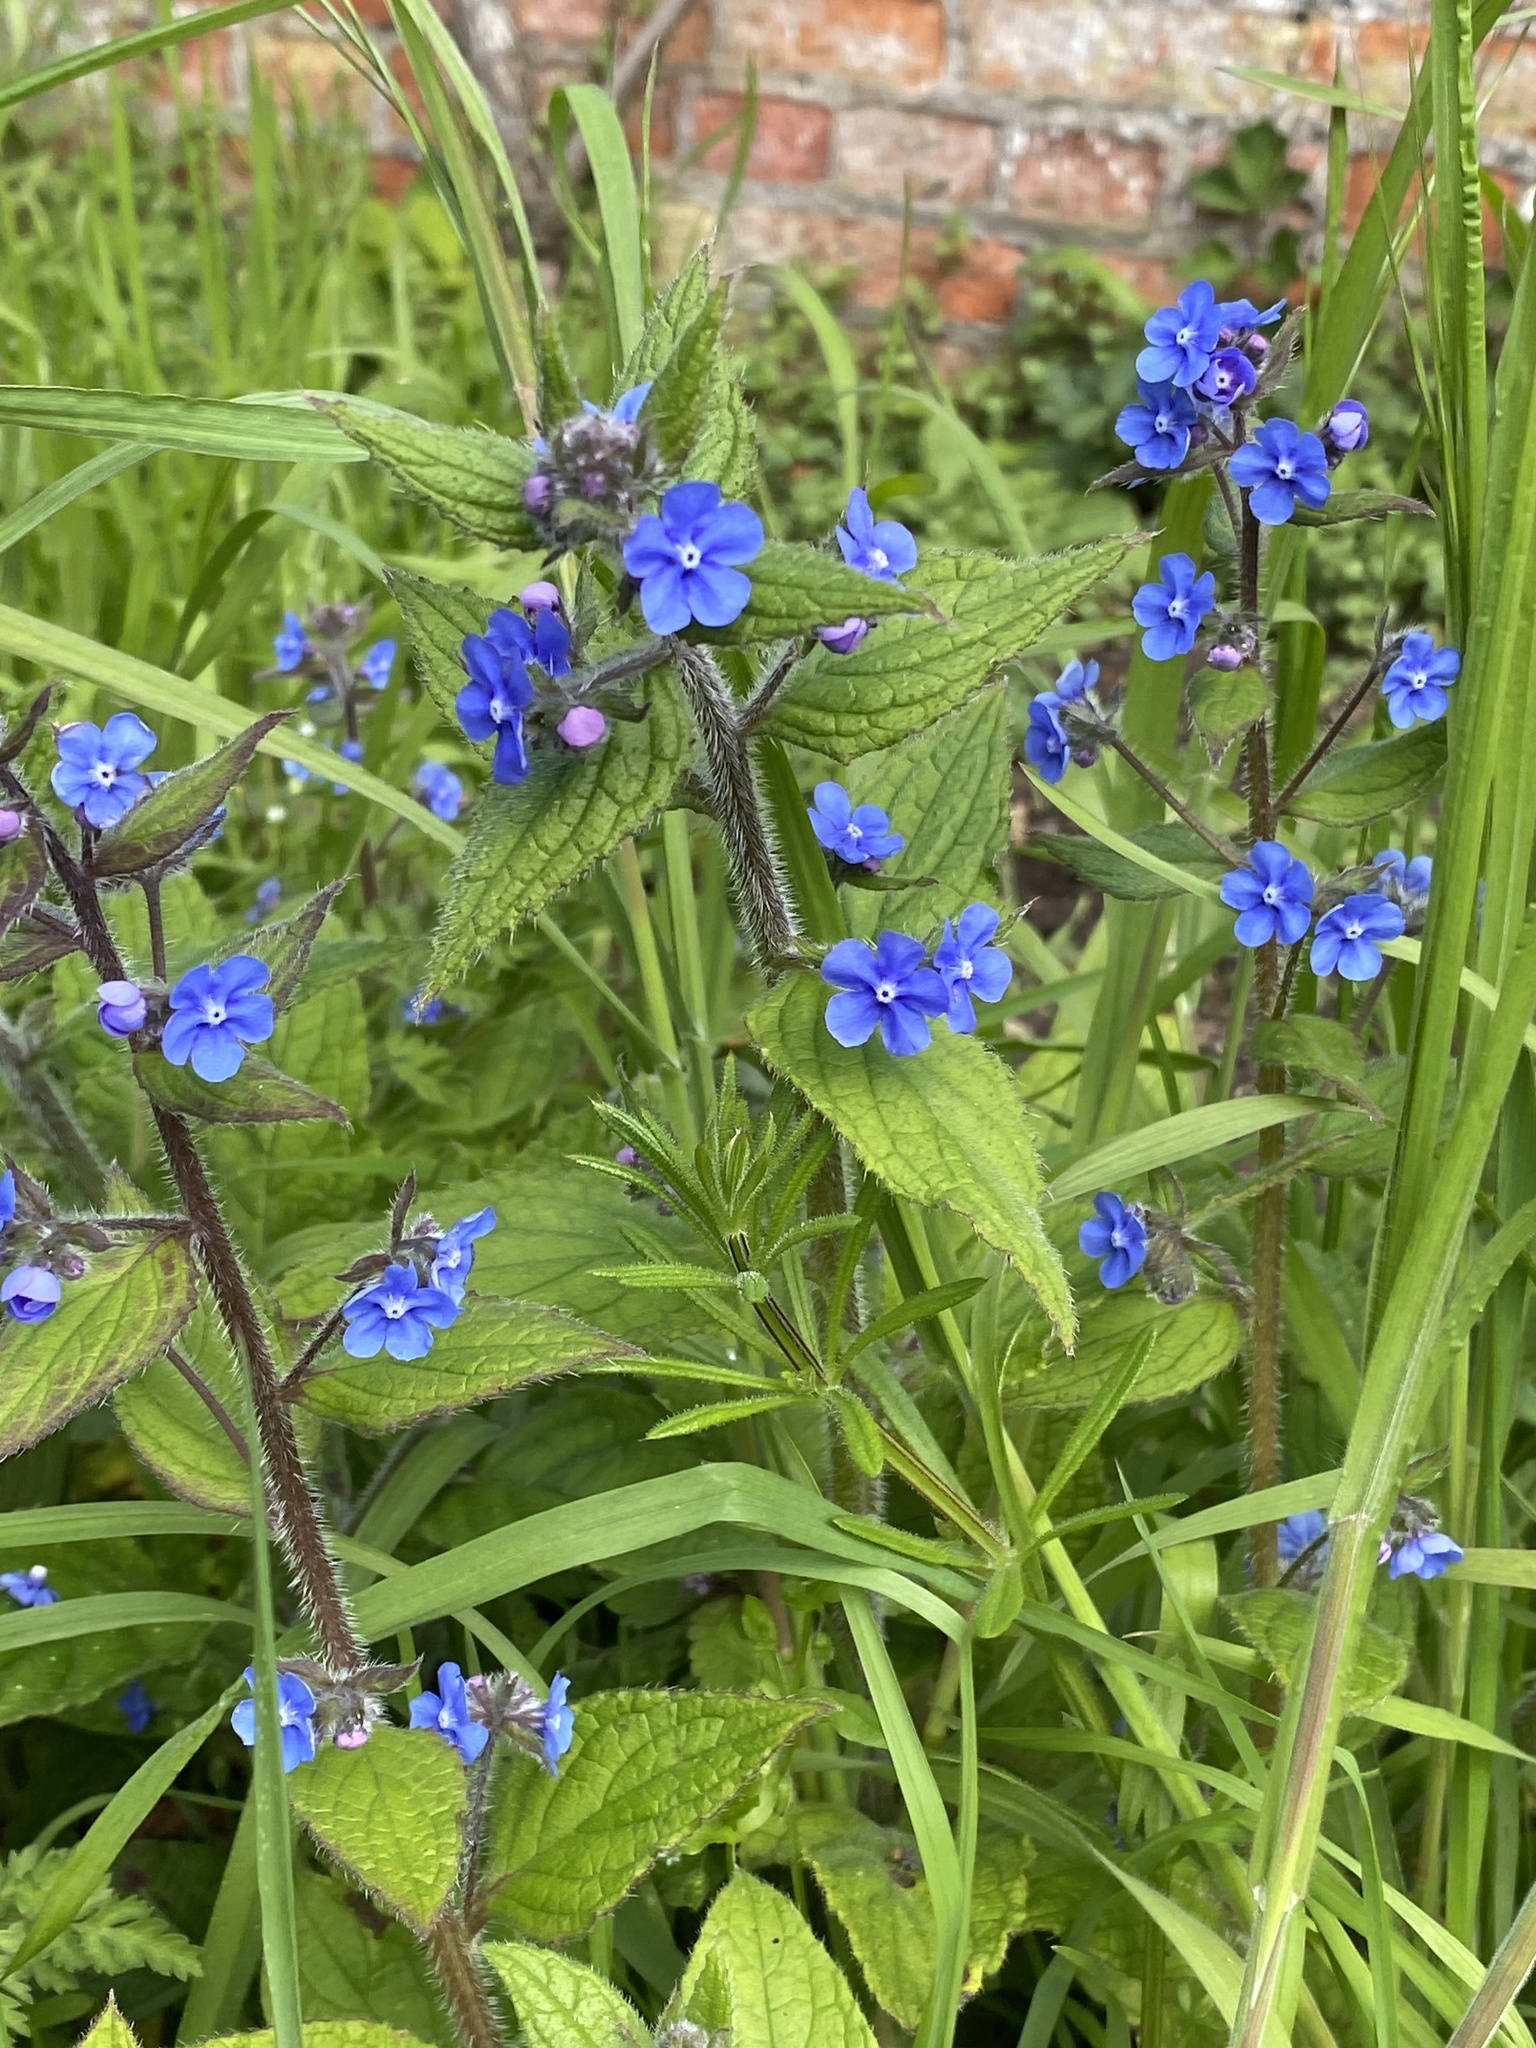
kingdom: Plantae
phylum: Tracheophyta
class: Magnoliopsida
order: Boraginales
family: Boraginaceae
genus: Pentaglottis
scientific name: Pentaglottis sempervirens
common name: Green alkanet
